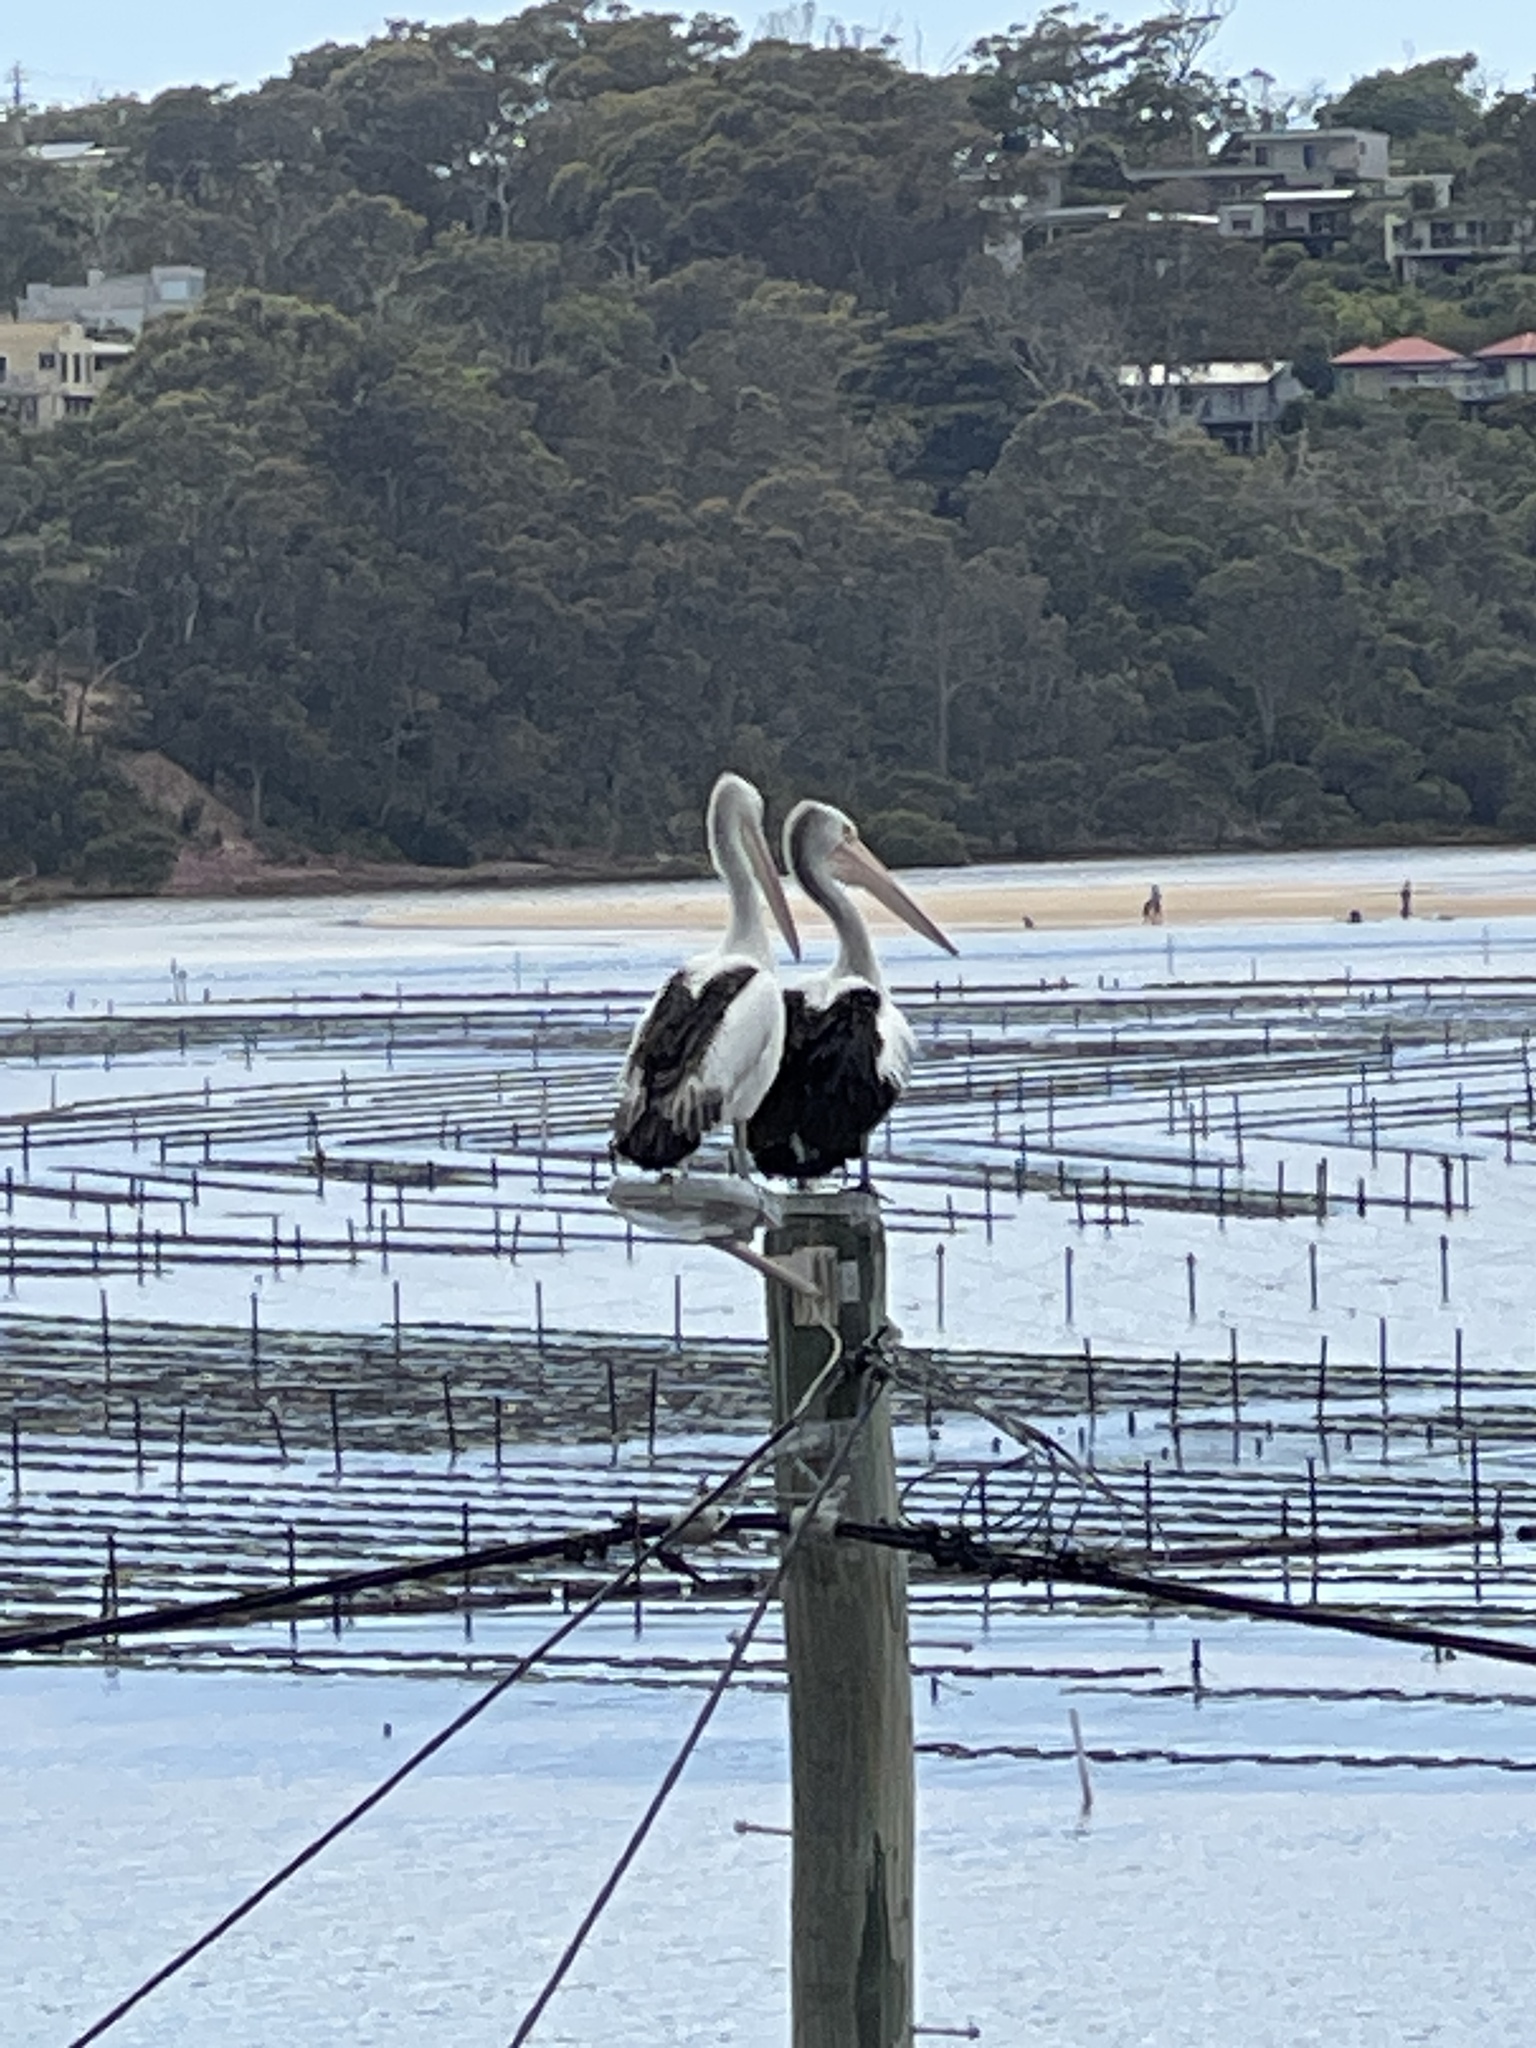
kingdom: Animalia
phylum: Chordata
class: Aves
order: Pelecaniformes
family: Pelecanidae
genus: Pelecanus
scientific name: Pelecanus conspicillatus
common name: Australian pelican
